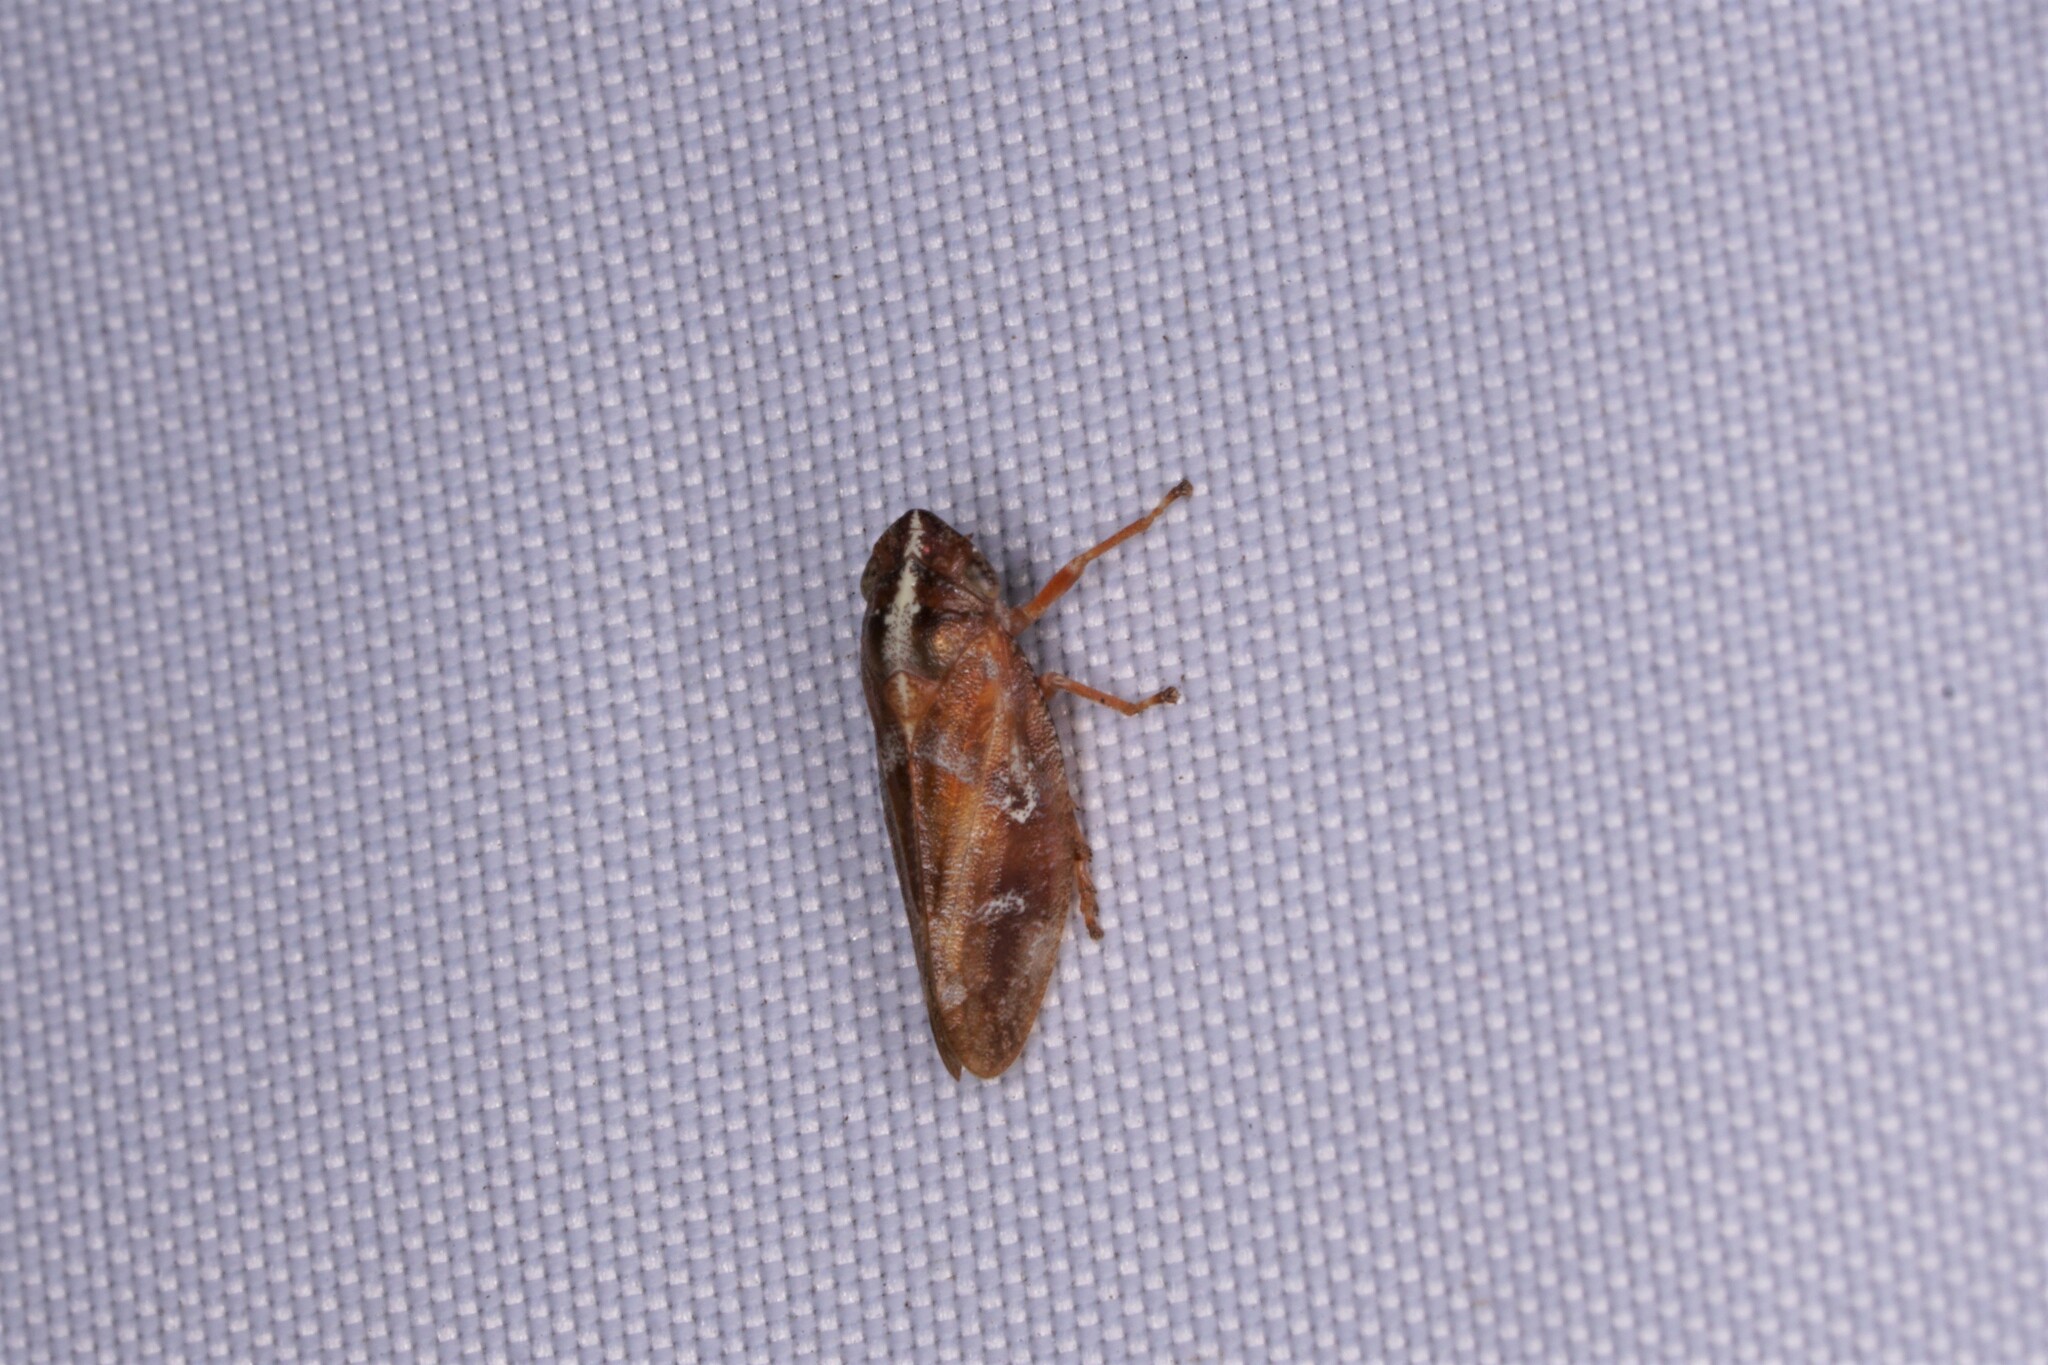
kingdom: Animalia
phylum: Arthropoda
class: Insecta
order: Hemiptera
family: Aphrophoridae
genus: Aphrophora
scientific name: Aphrophora saratogensis
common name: Saratoga spittlebug
